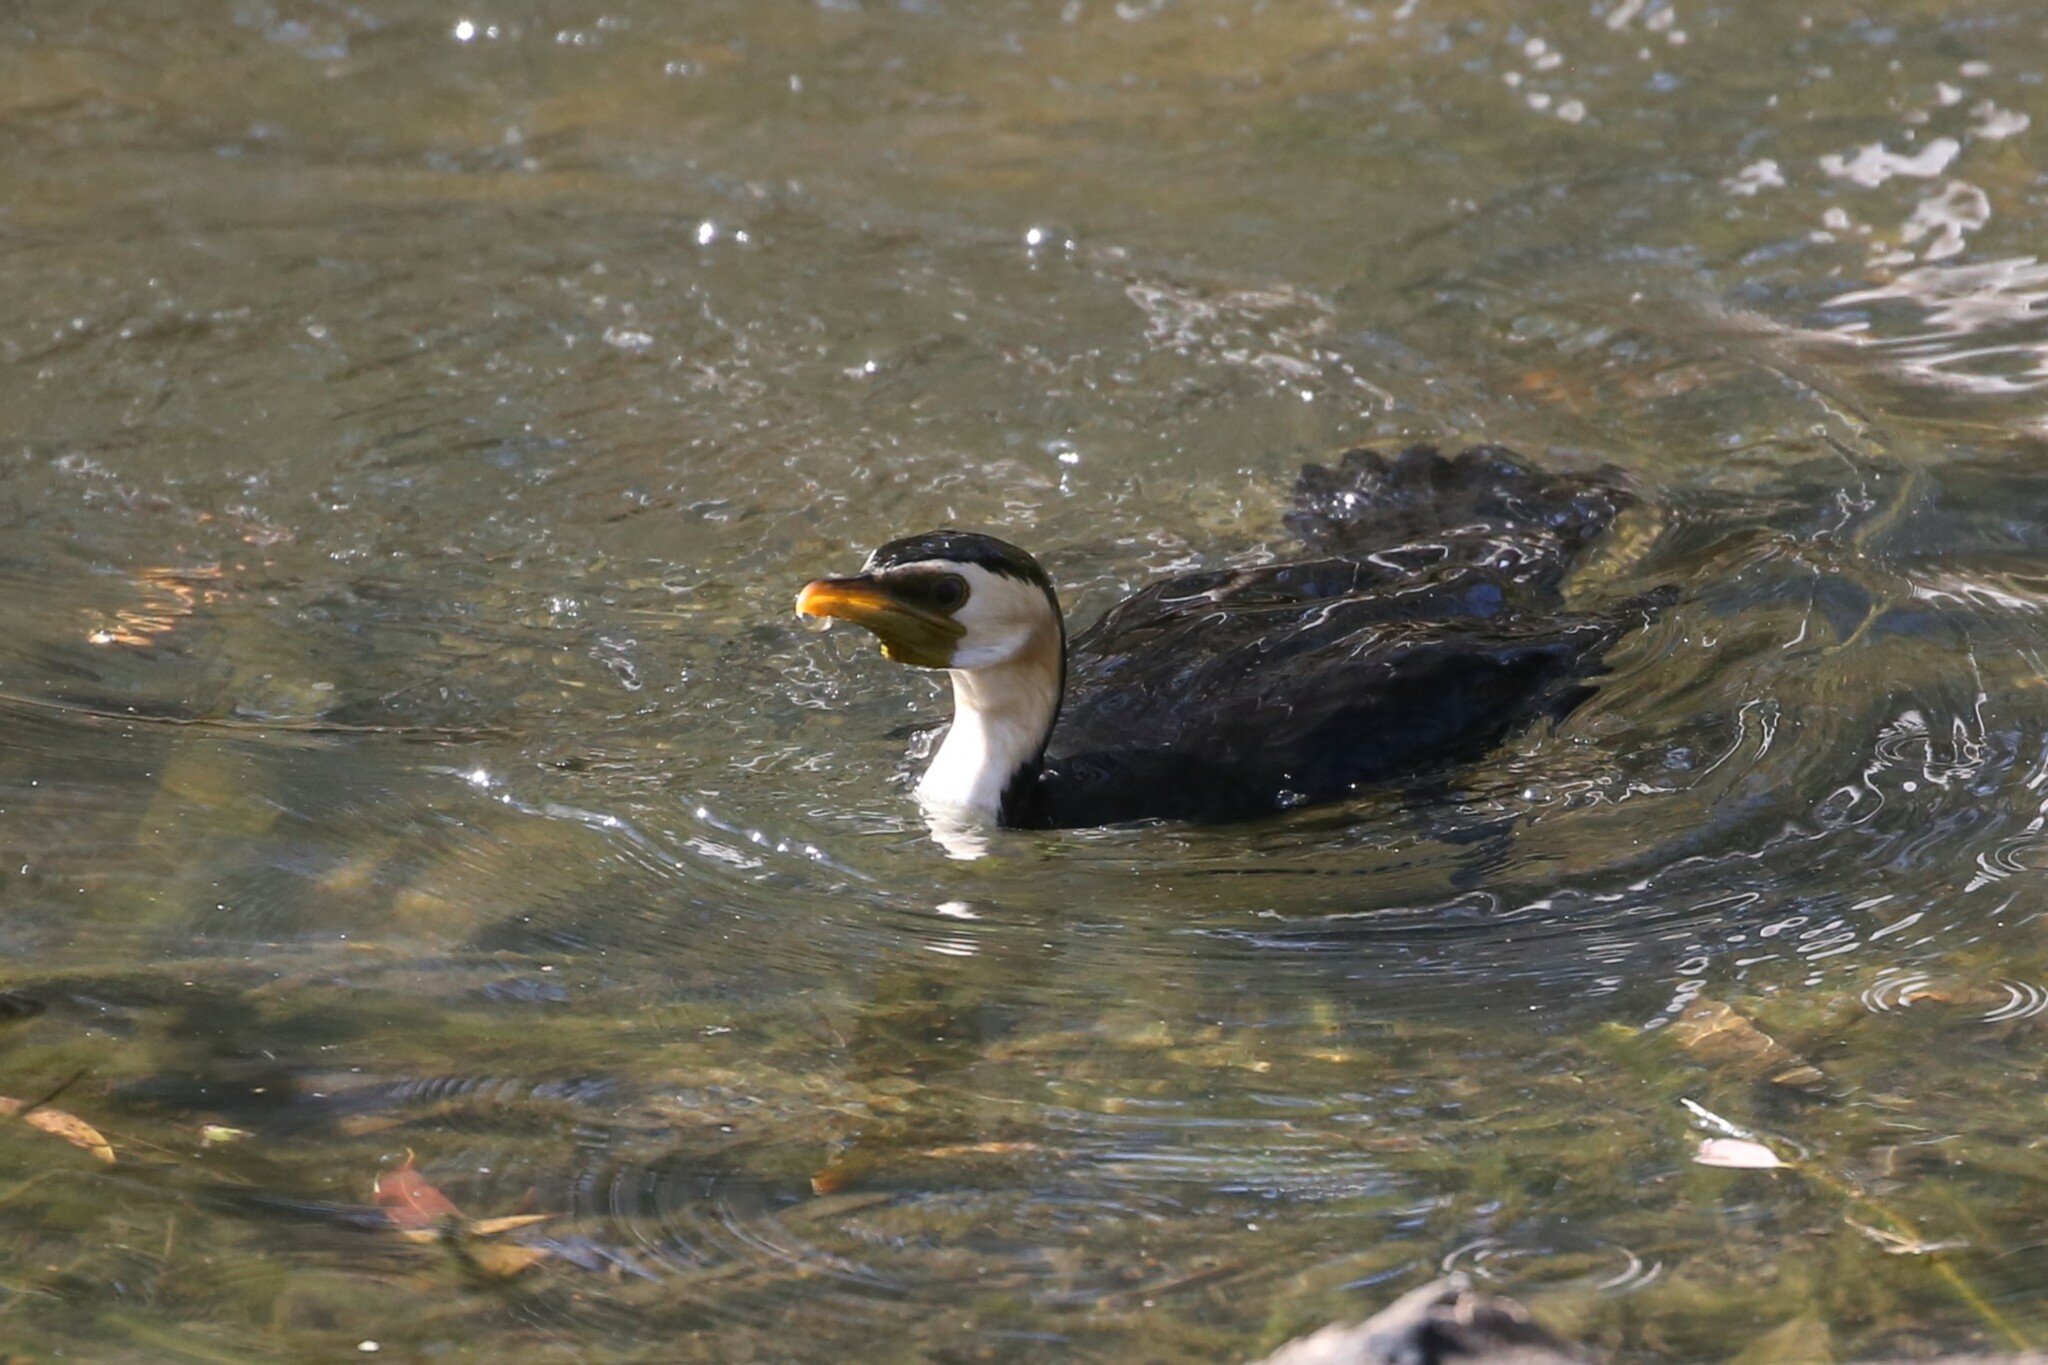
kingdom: Animalia
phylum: Chordata
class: Aves
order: Suliformes
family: Phalacrocoracidae
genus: Microcarbo
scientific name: Microcarbo melanoleucos
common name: Little pied cormorant
